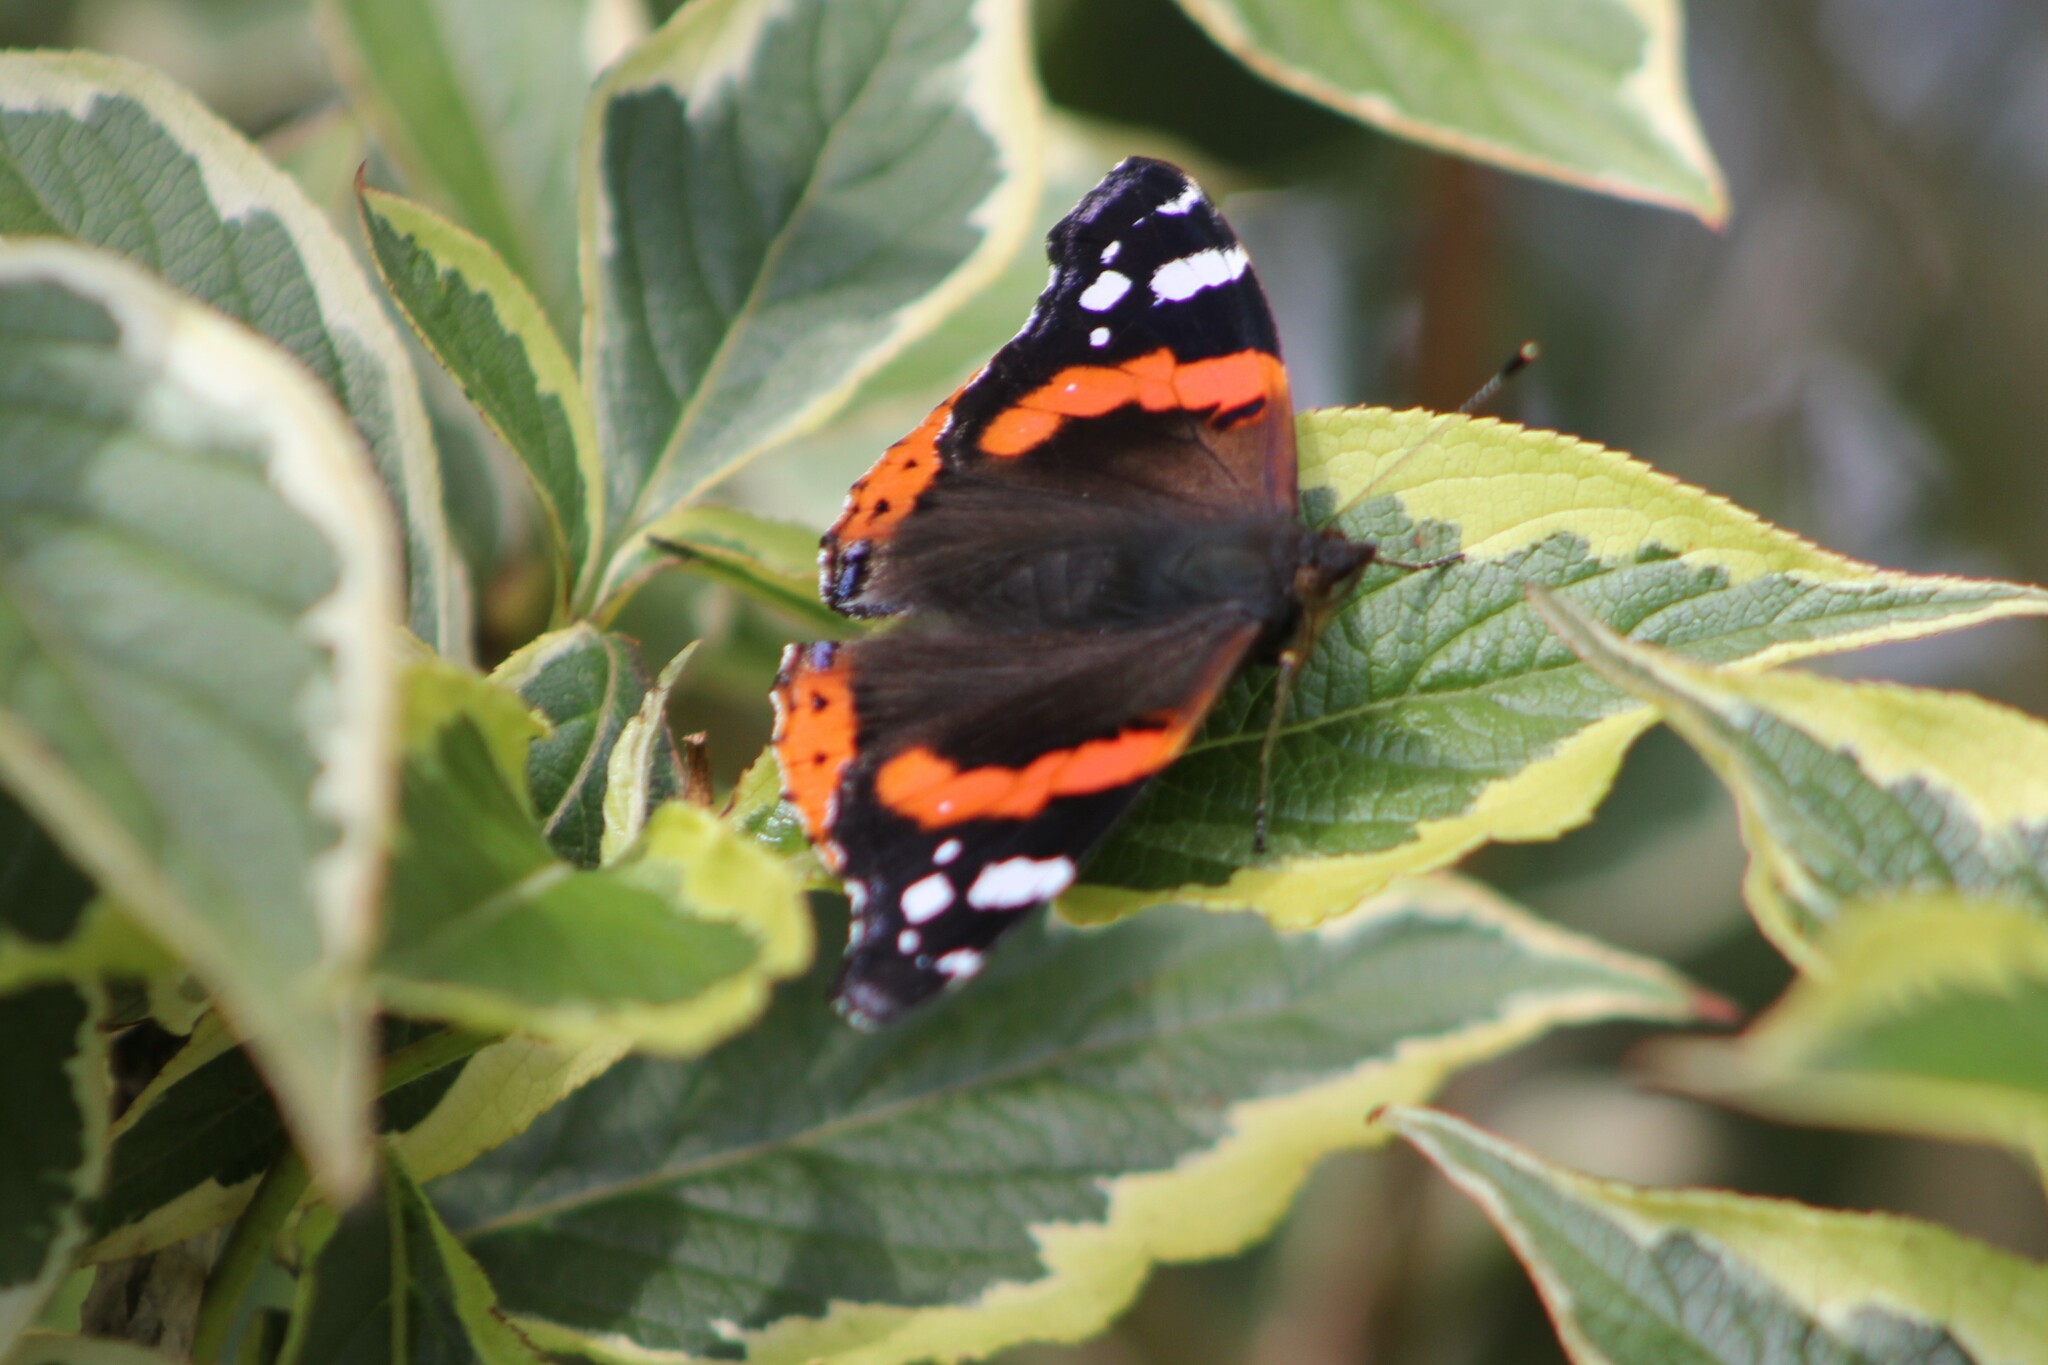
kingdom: Animalia
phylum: Arthropoda
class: Insecta
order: Lepidoptera
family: Nymphalidae
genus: Vanessa
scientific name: Vanessa atalanta
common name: Red admiral
